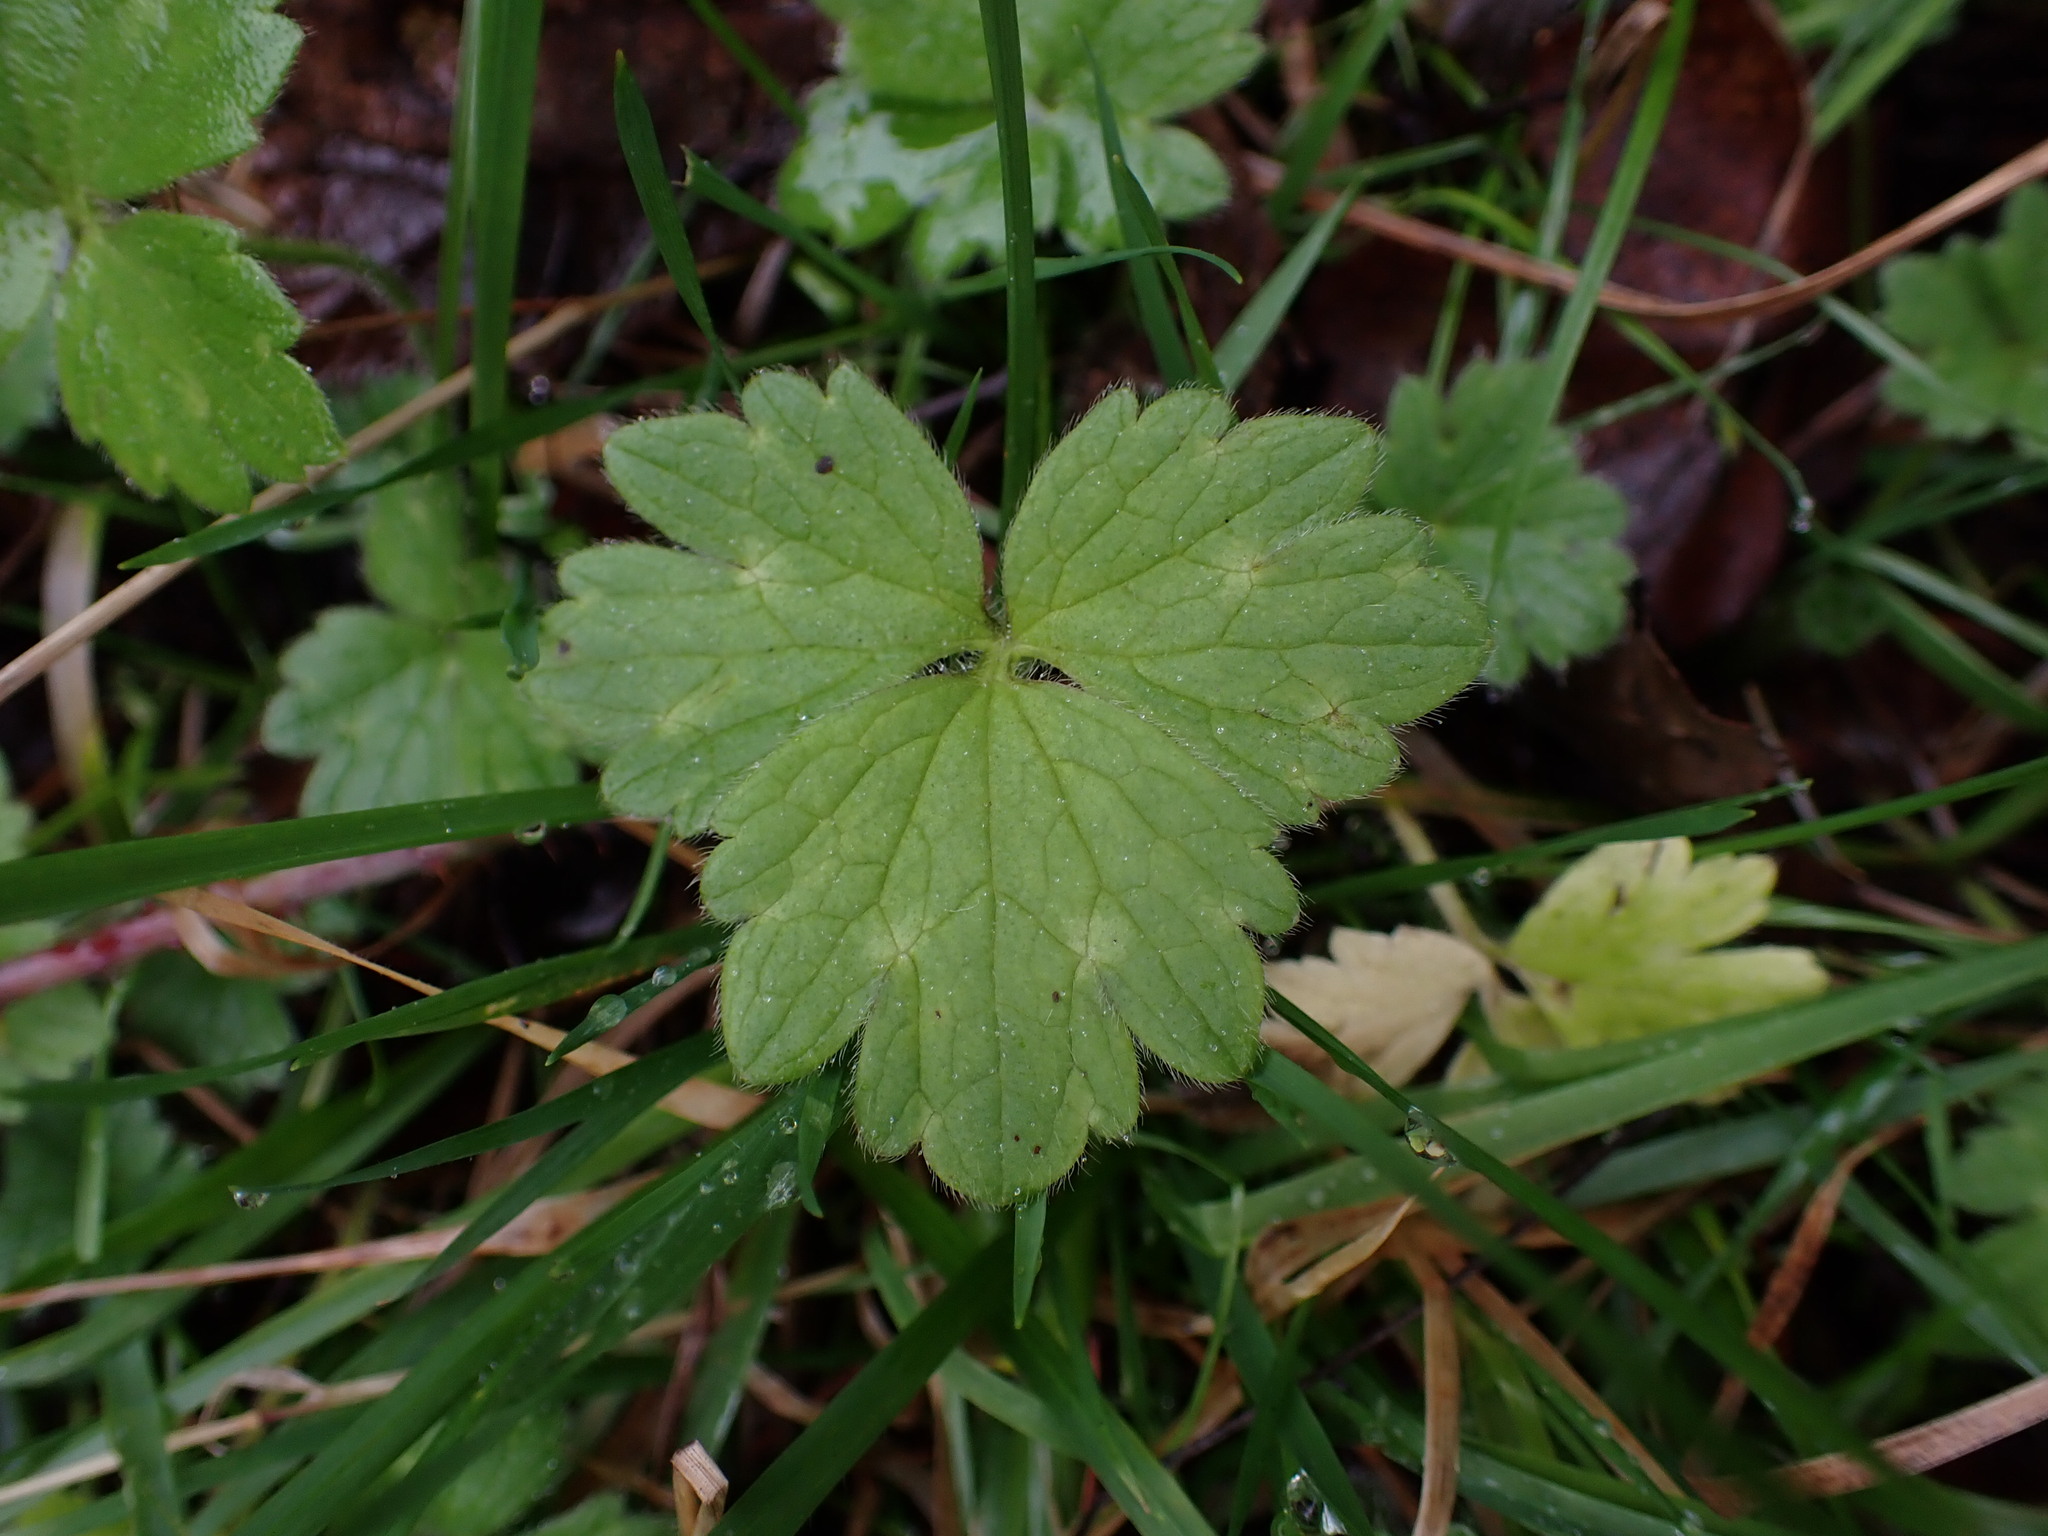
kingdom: Plantae
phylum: Tracheophyta
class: Magnoliopsida
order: Ranunculales
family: Ranunculaceae
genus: Ranunculus
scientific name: Ranunculus repens
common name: Creeping buttercup
